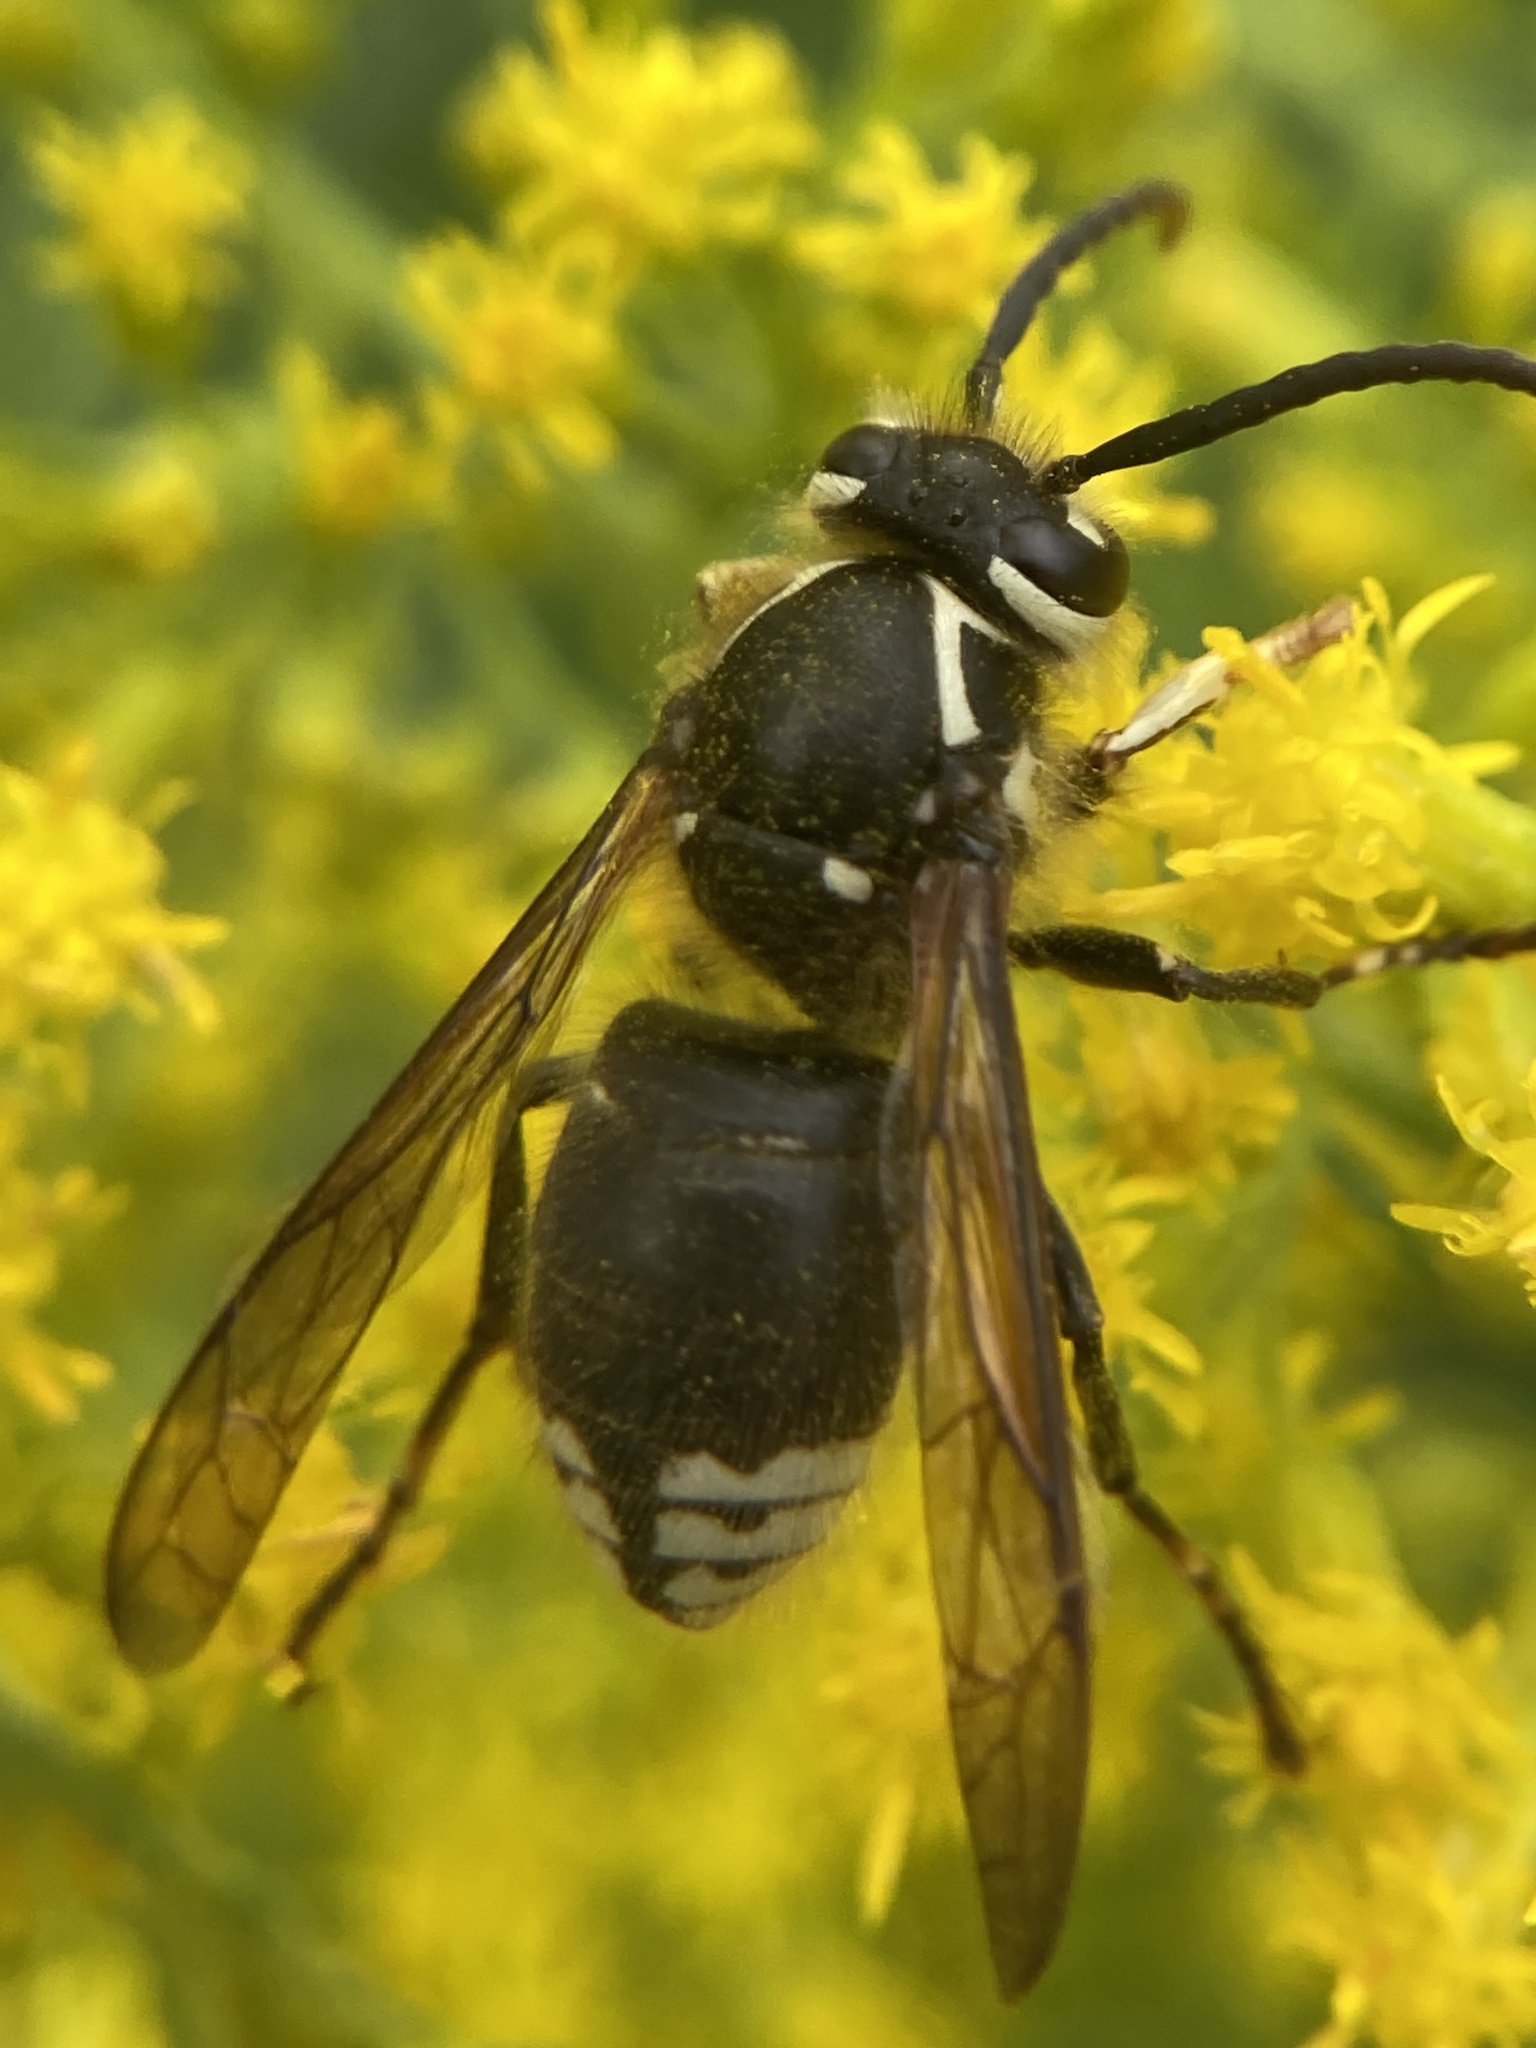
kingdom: Animalia
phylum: Arthropoda
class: Insecta
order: Hymenoptera
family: Vespidae
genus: Dolichovespula
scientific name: Dolichovespula maculata
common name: Bald-faced hornet
